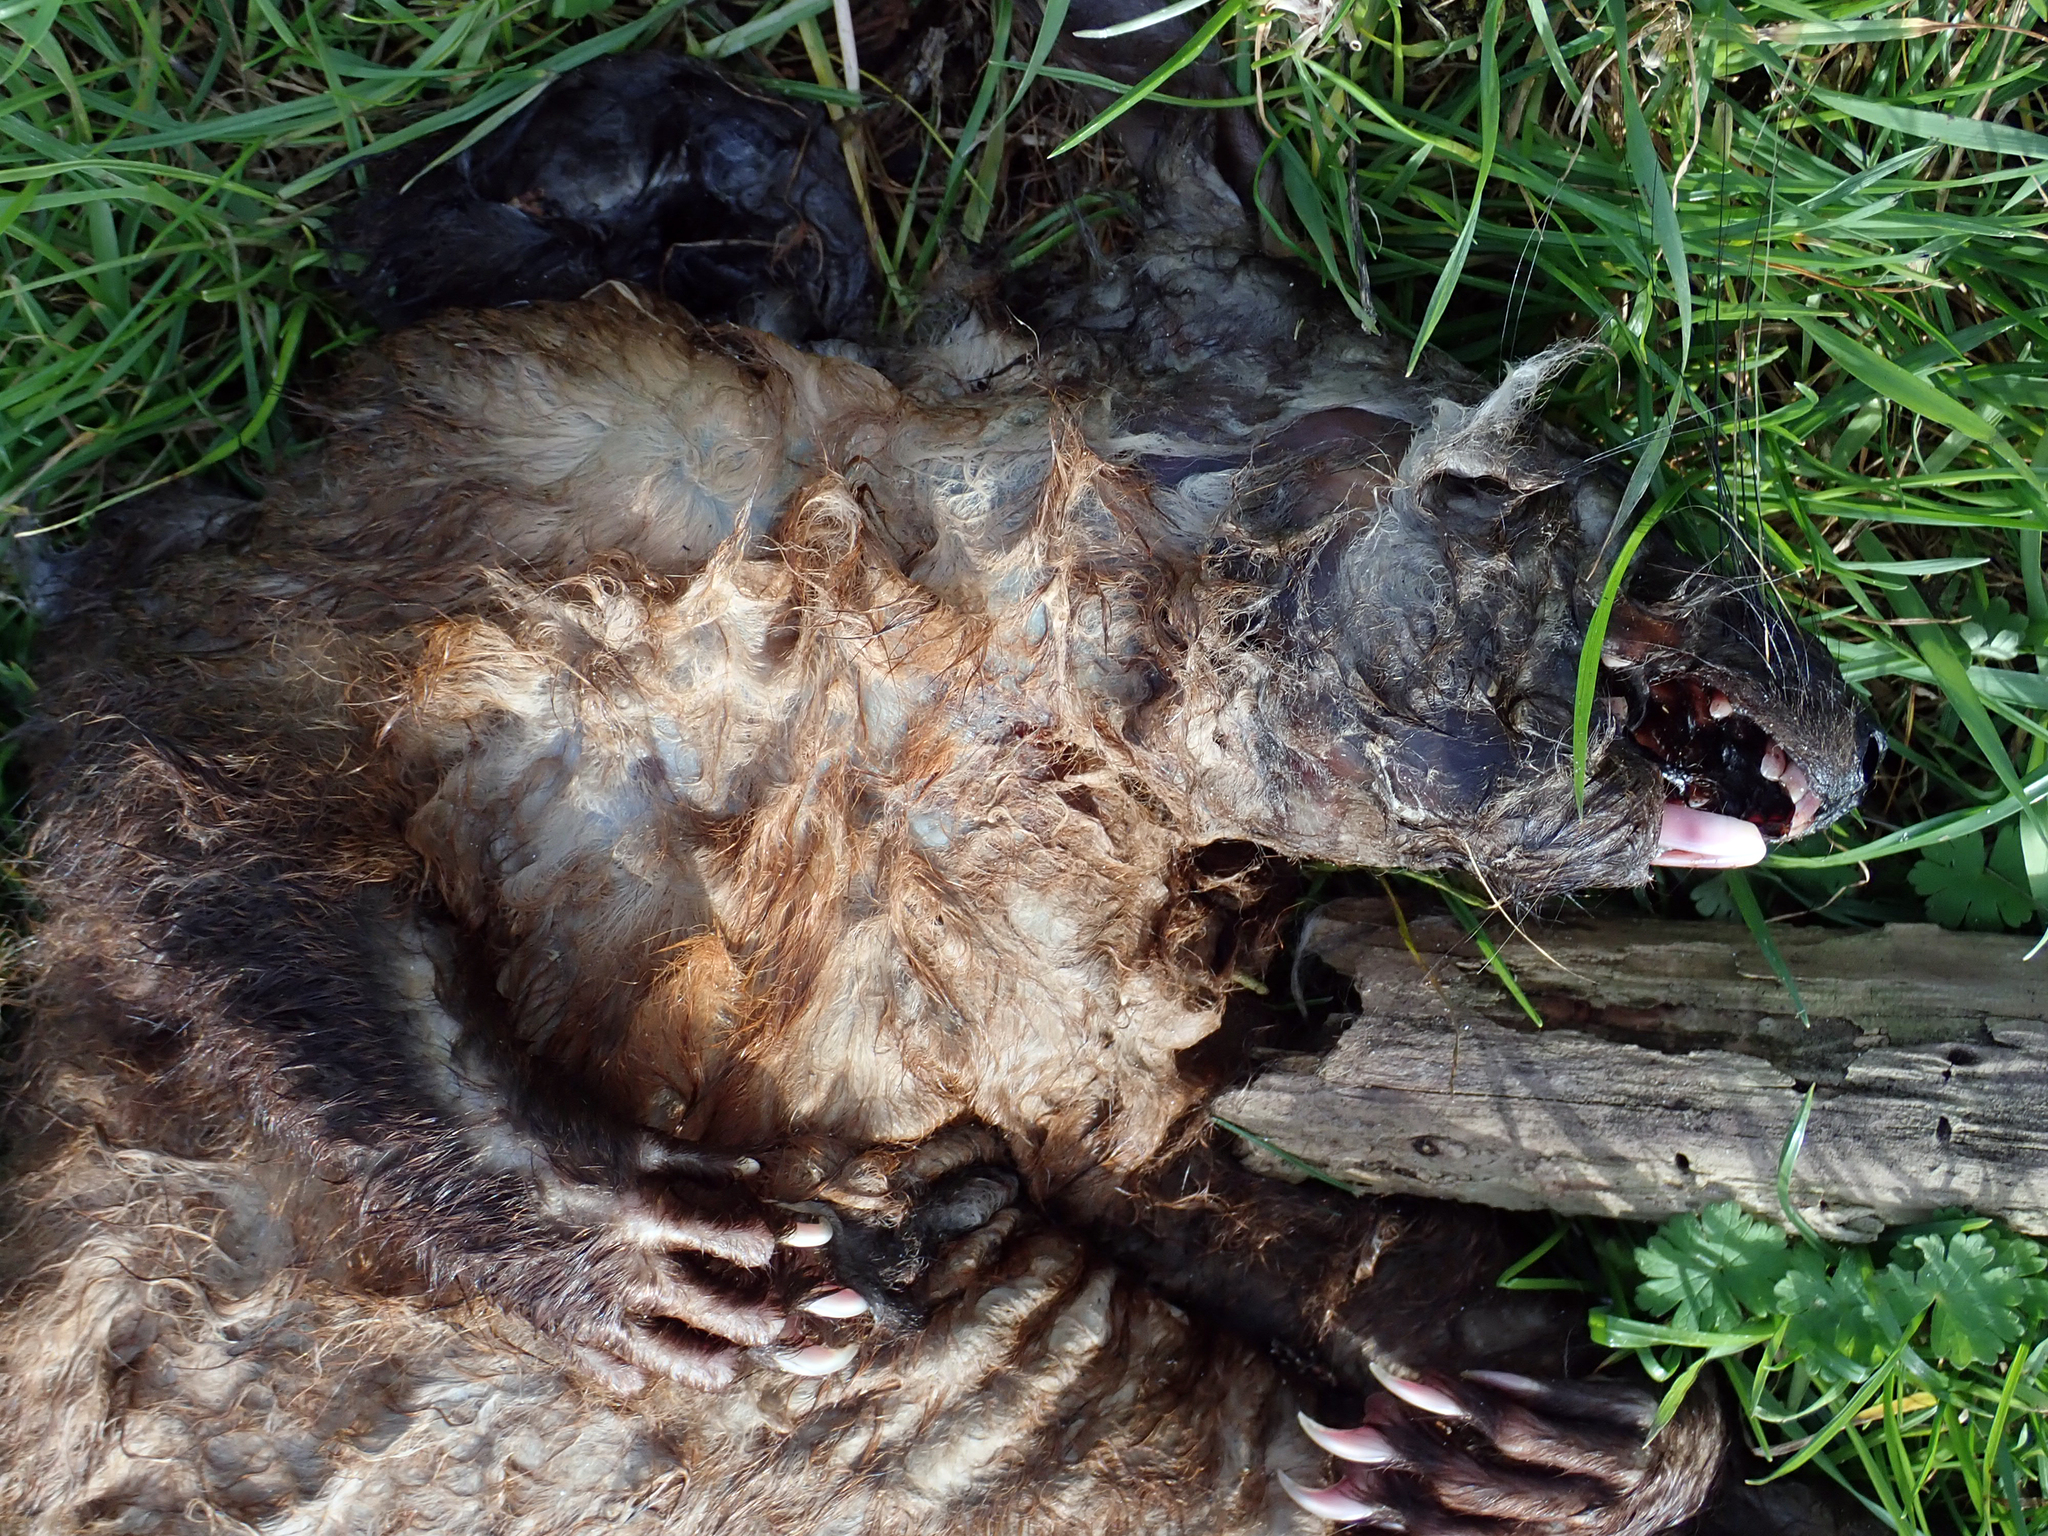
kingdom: Animalia
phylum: Chordata
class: Mammalia
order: Diprotodontia
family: Phalangeridae
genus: Trichosurus
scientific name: Trichosurus vulpecula
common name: Common brushtail
